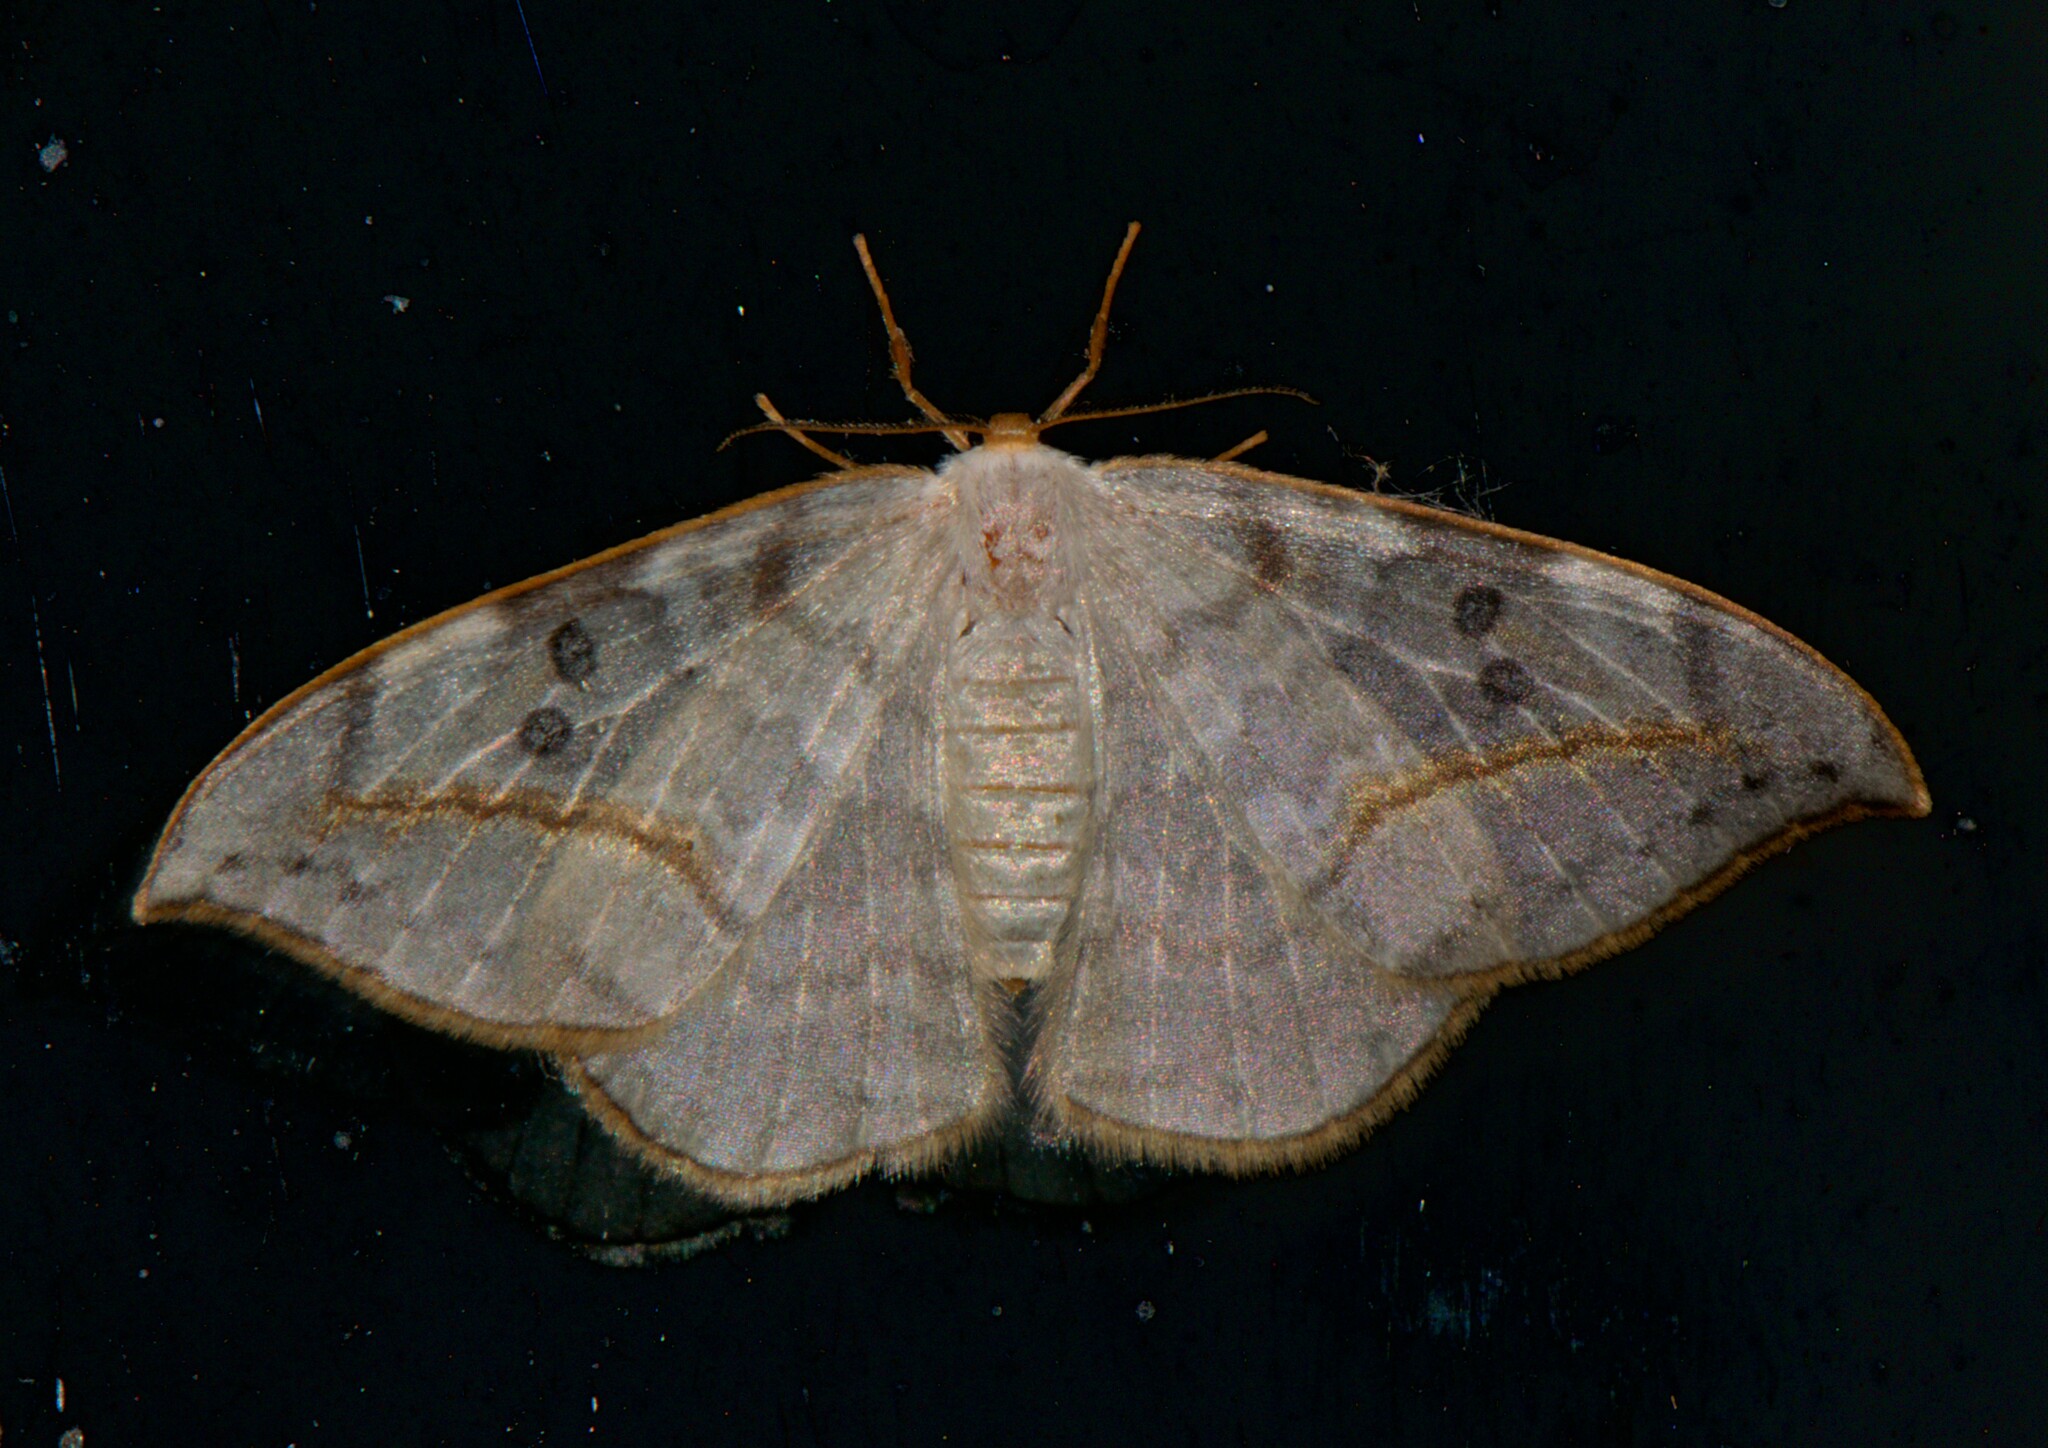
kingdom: Animalia
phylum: Arthropoda
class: Insecta
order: Lepidoptera
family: Drepanidae
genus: Drepana
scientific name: Drepana dispilata
